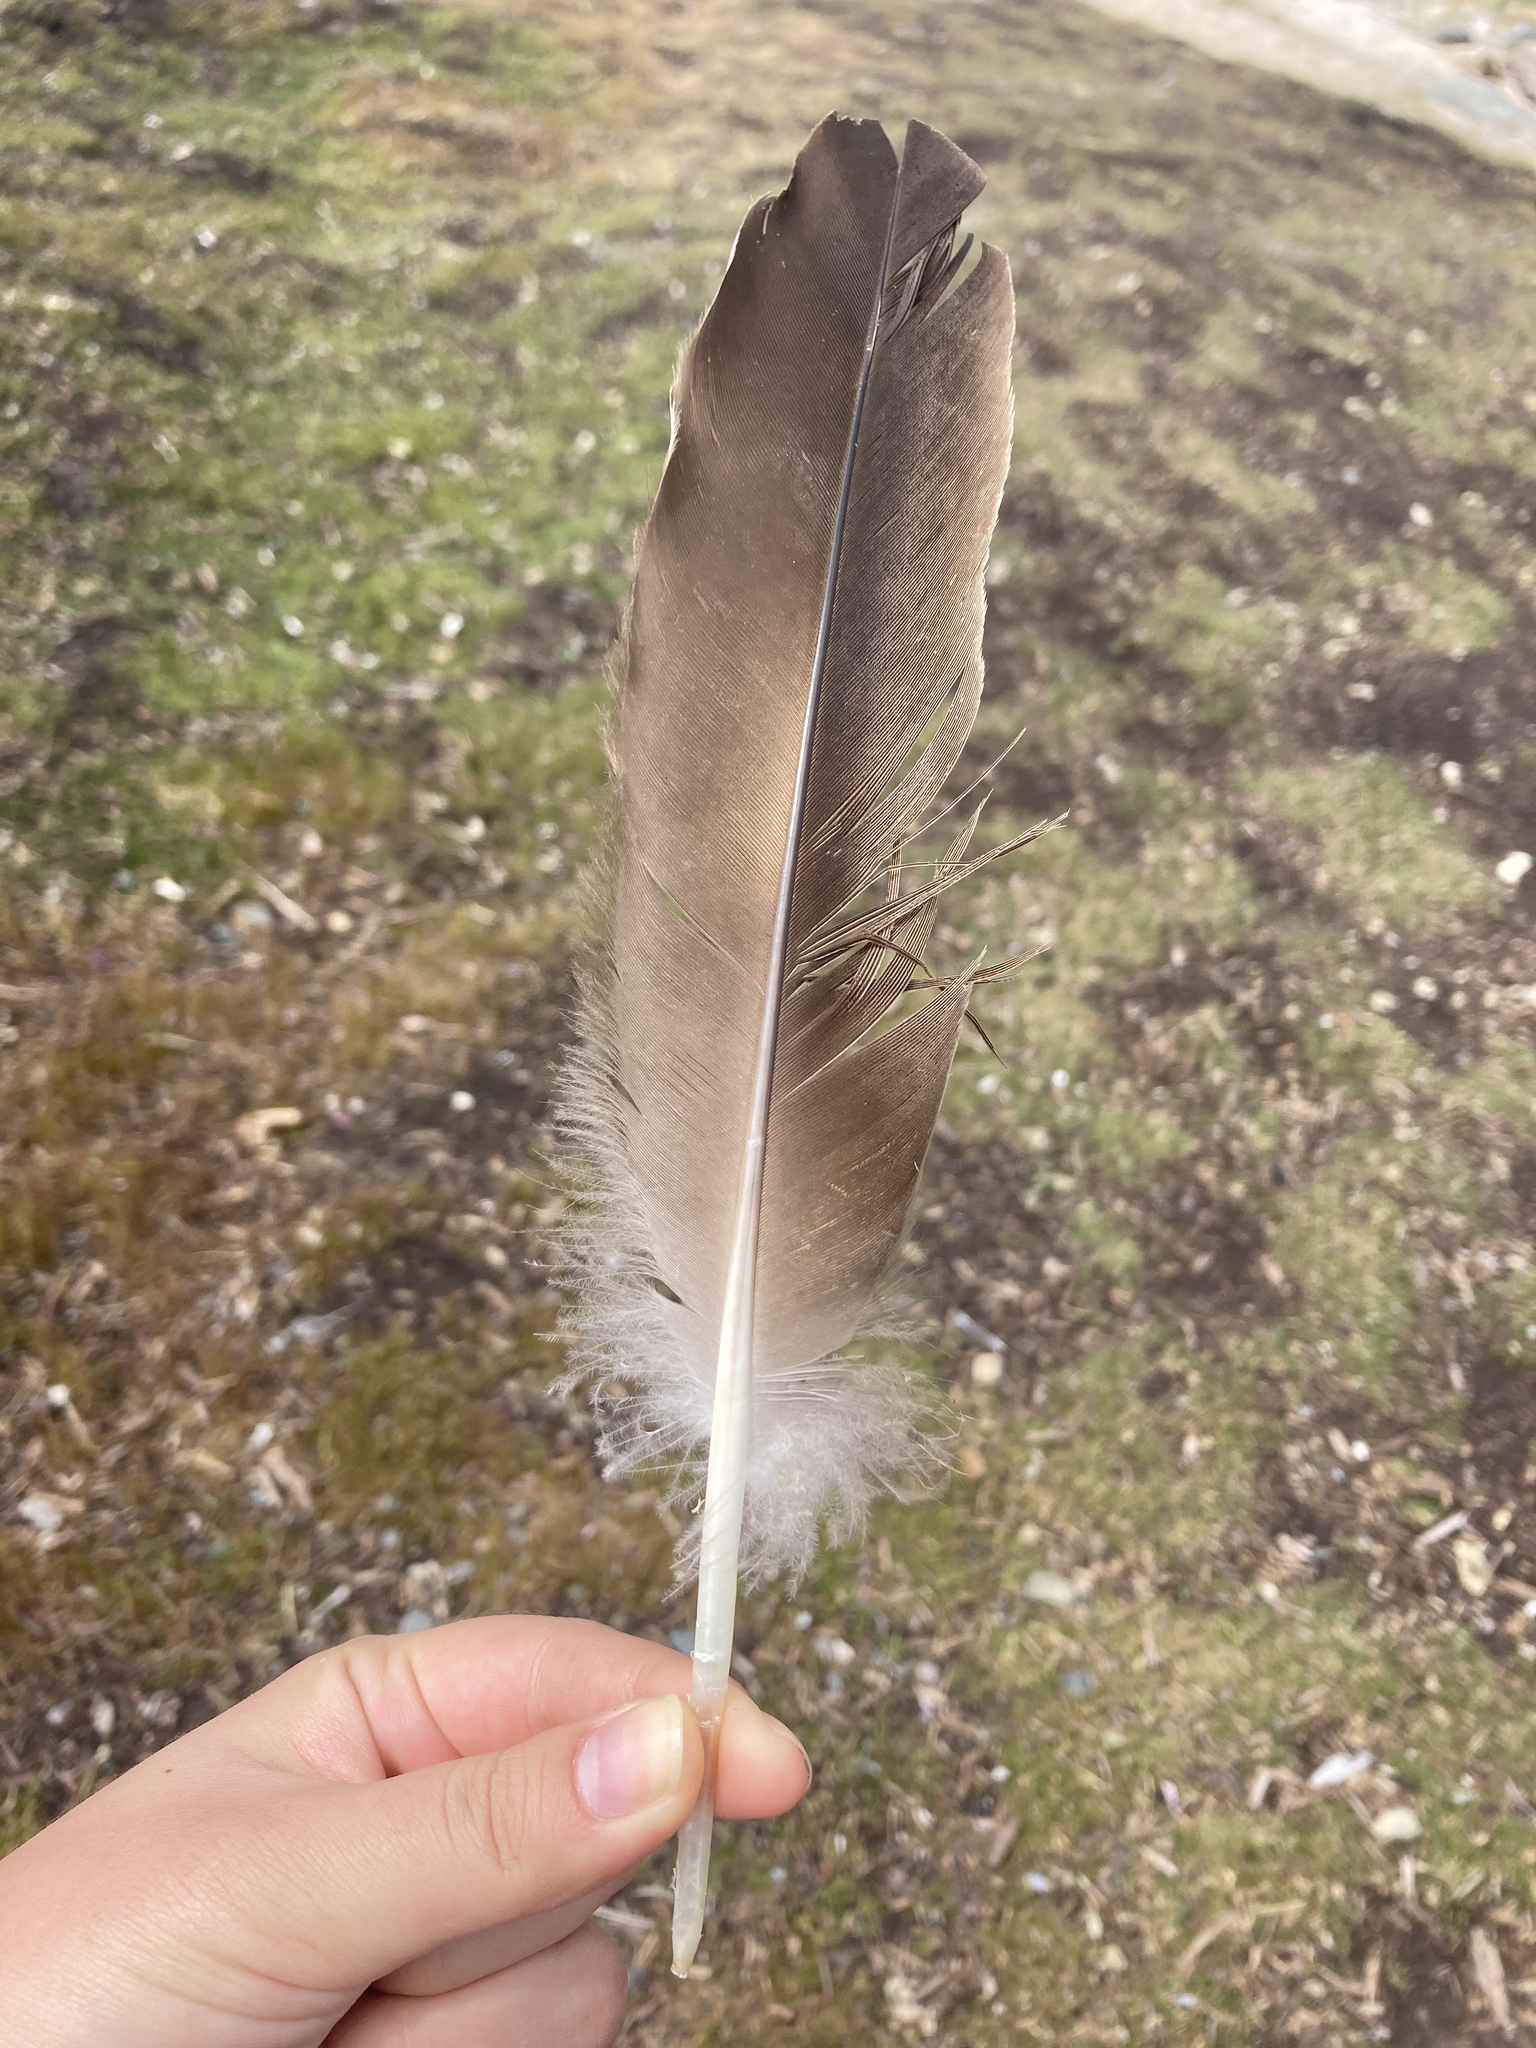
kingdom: Animalia
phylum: Chordata
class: Aves
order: Anseriformes
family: Anatidae
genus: Branta
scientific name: Branta canadensis
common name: Canada goose
